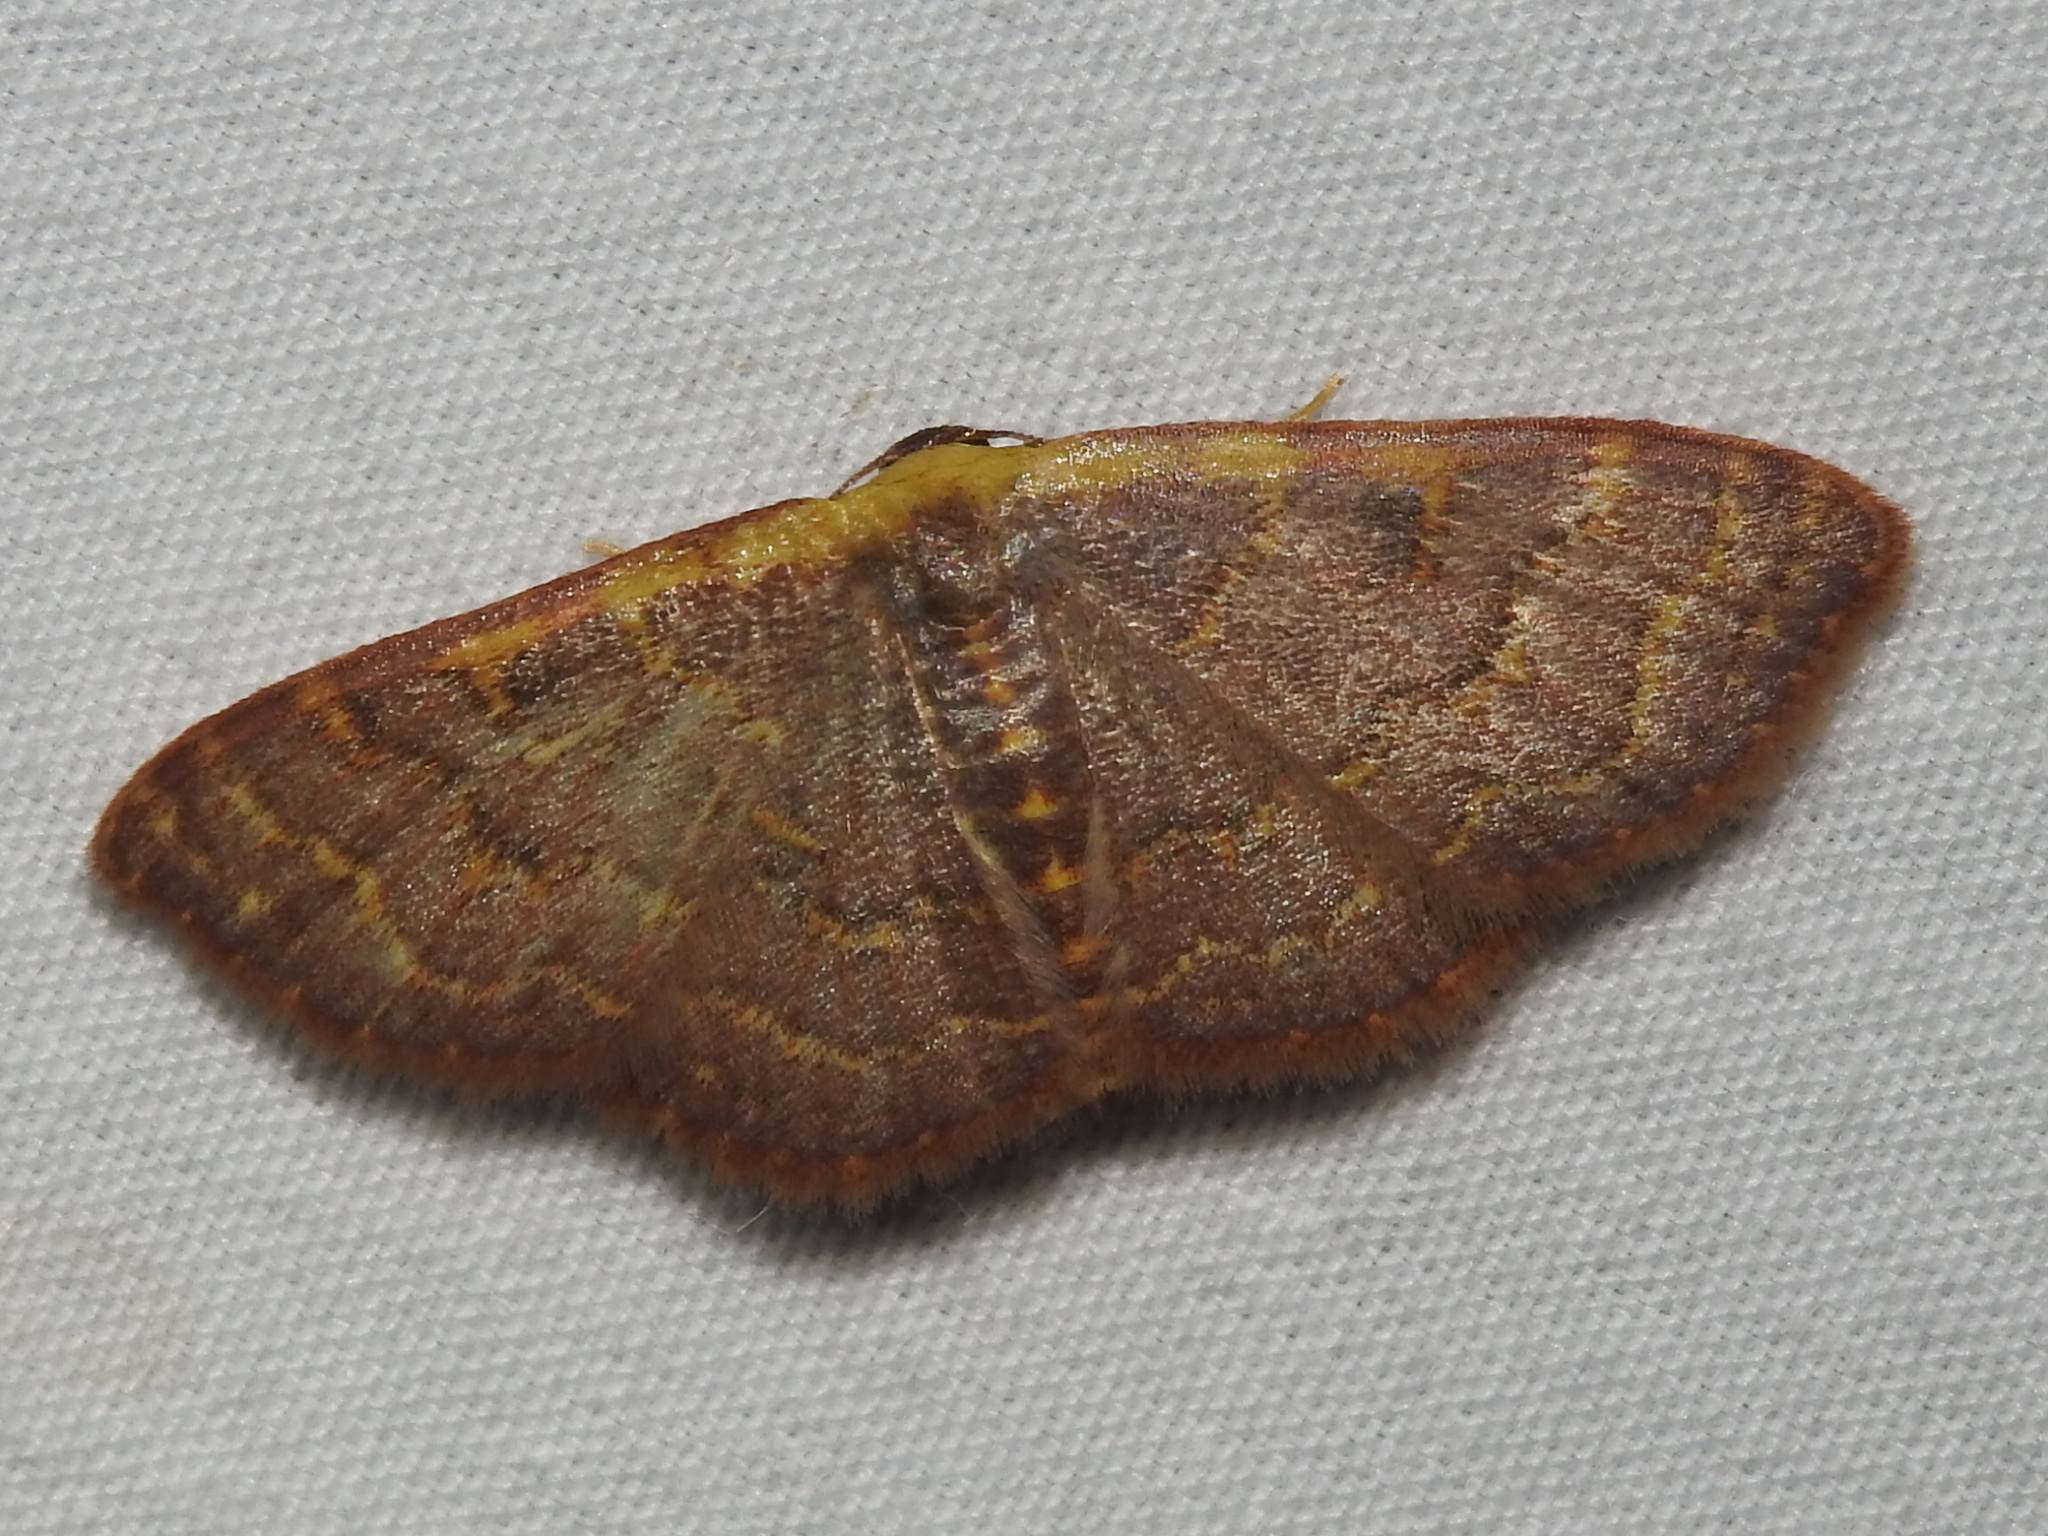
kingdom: Animalia
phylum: Arthropoda
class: Insecta
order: Lepidoptera
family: Geometridae
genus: Leptostales
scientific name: Leptostales pannaria
